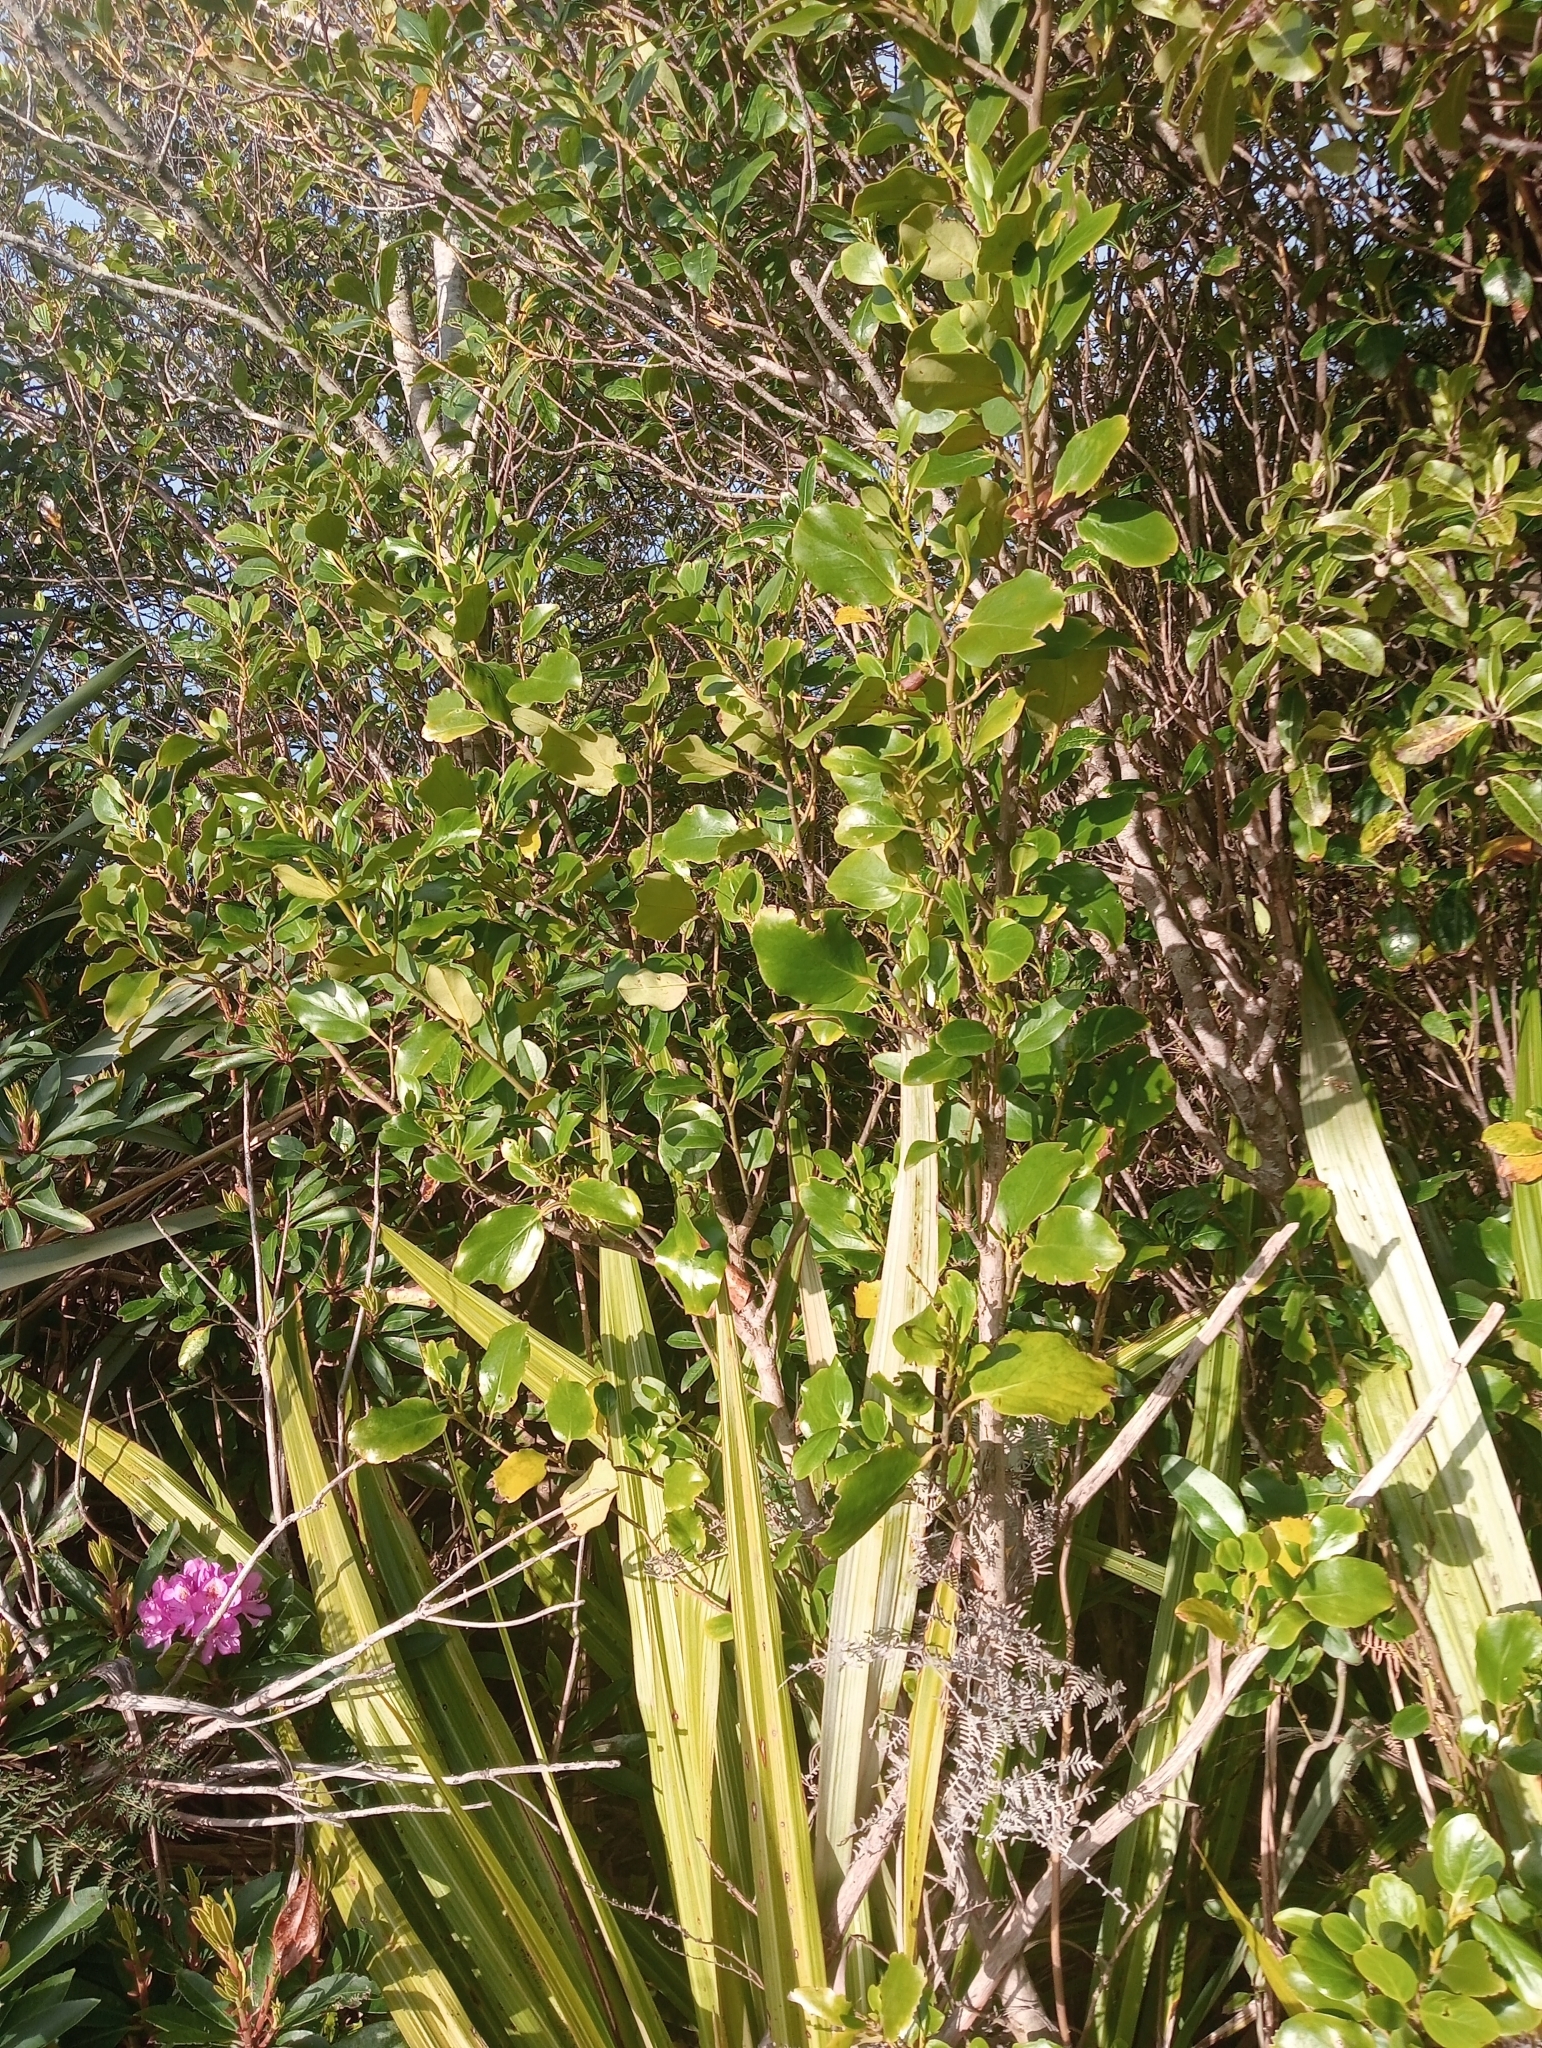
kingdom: Plantae
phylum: Tracheophyta
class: Magnoliopsida
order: Apiales
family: Griseliniaceae
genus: Griselinia
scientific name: Griselinia littoralis
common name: New zealand broadleaf
